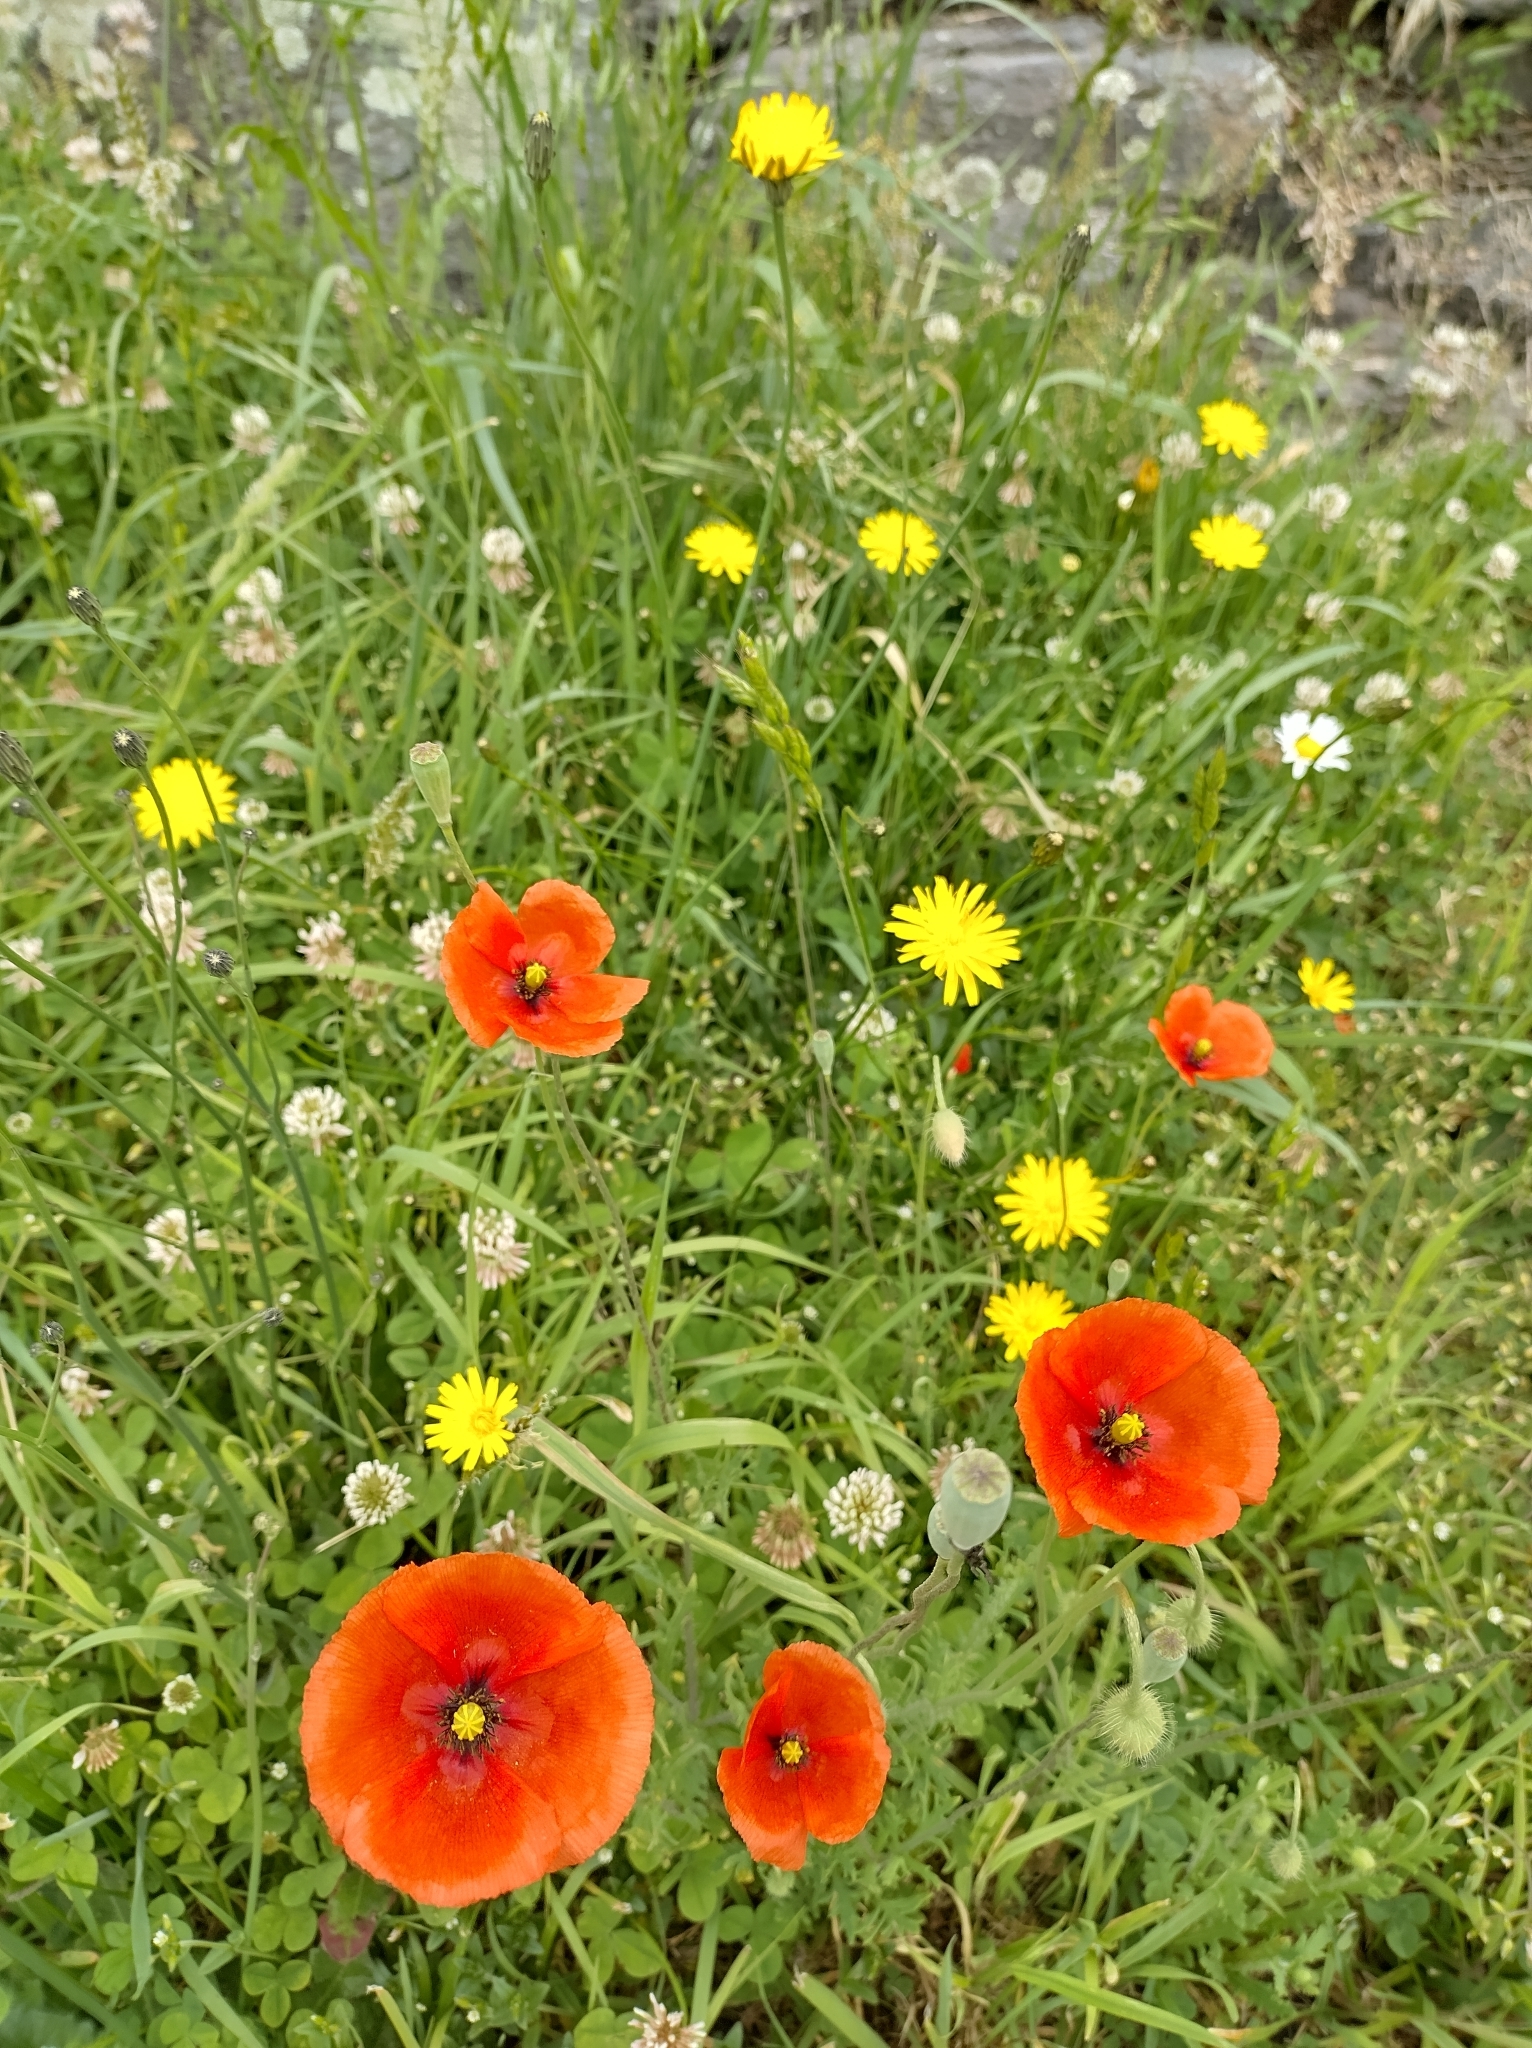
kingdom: Plantae
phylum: Tracheophyta
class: Magnoliopsida
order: Ranunculales
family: Papaveraceae
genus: Papaver
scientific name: Papaver rhoeas
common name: Corn poppy
